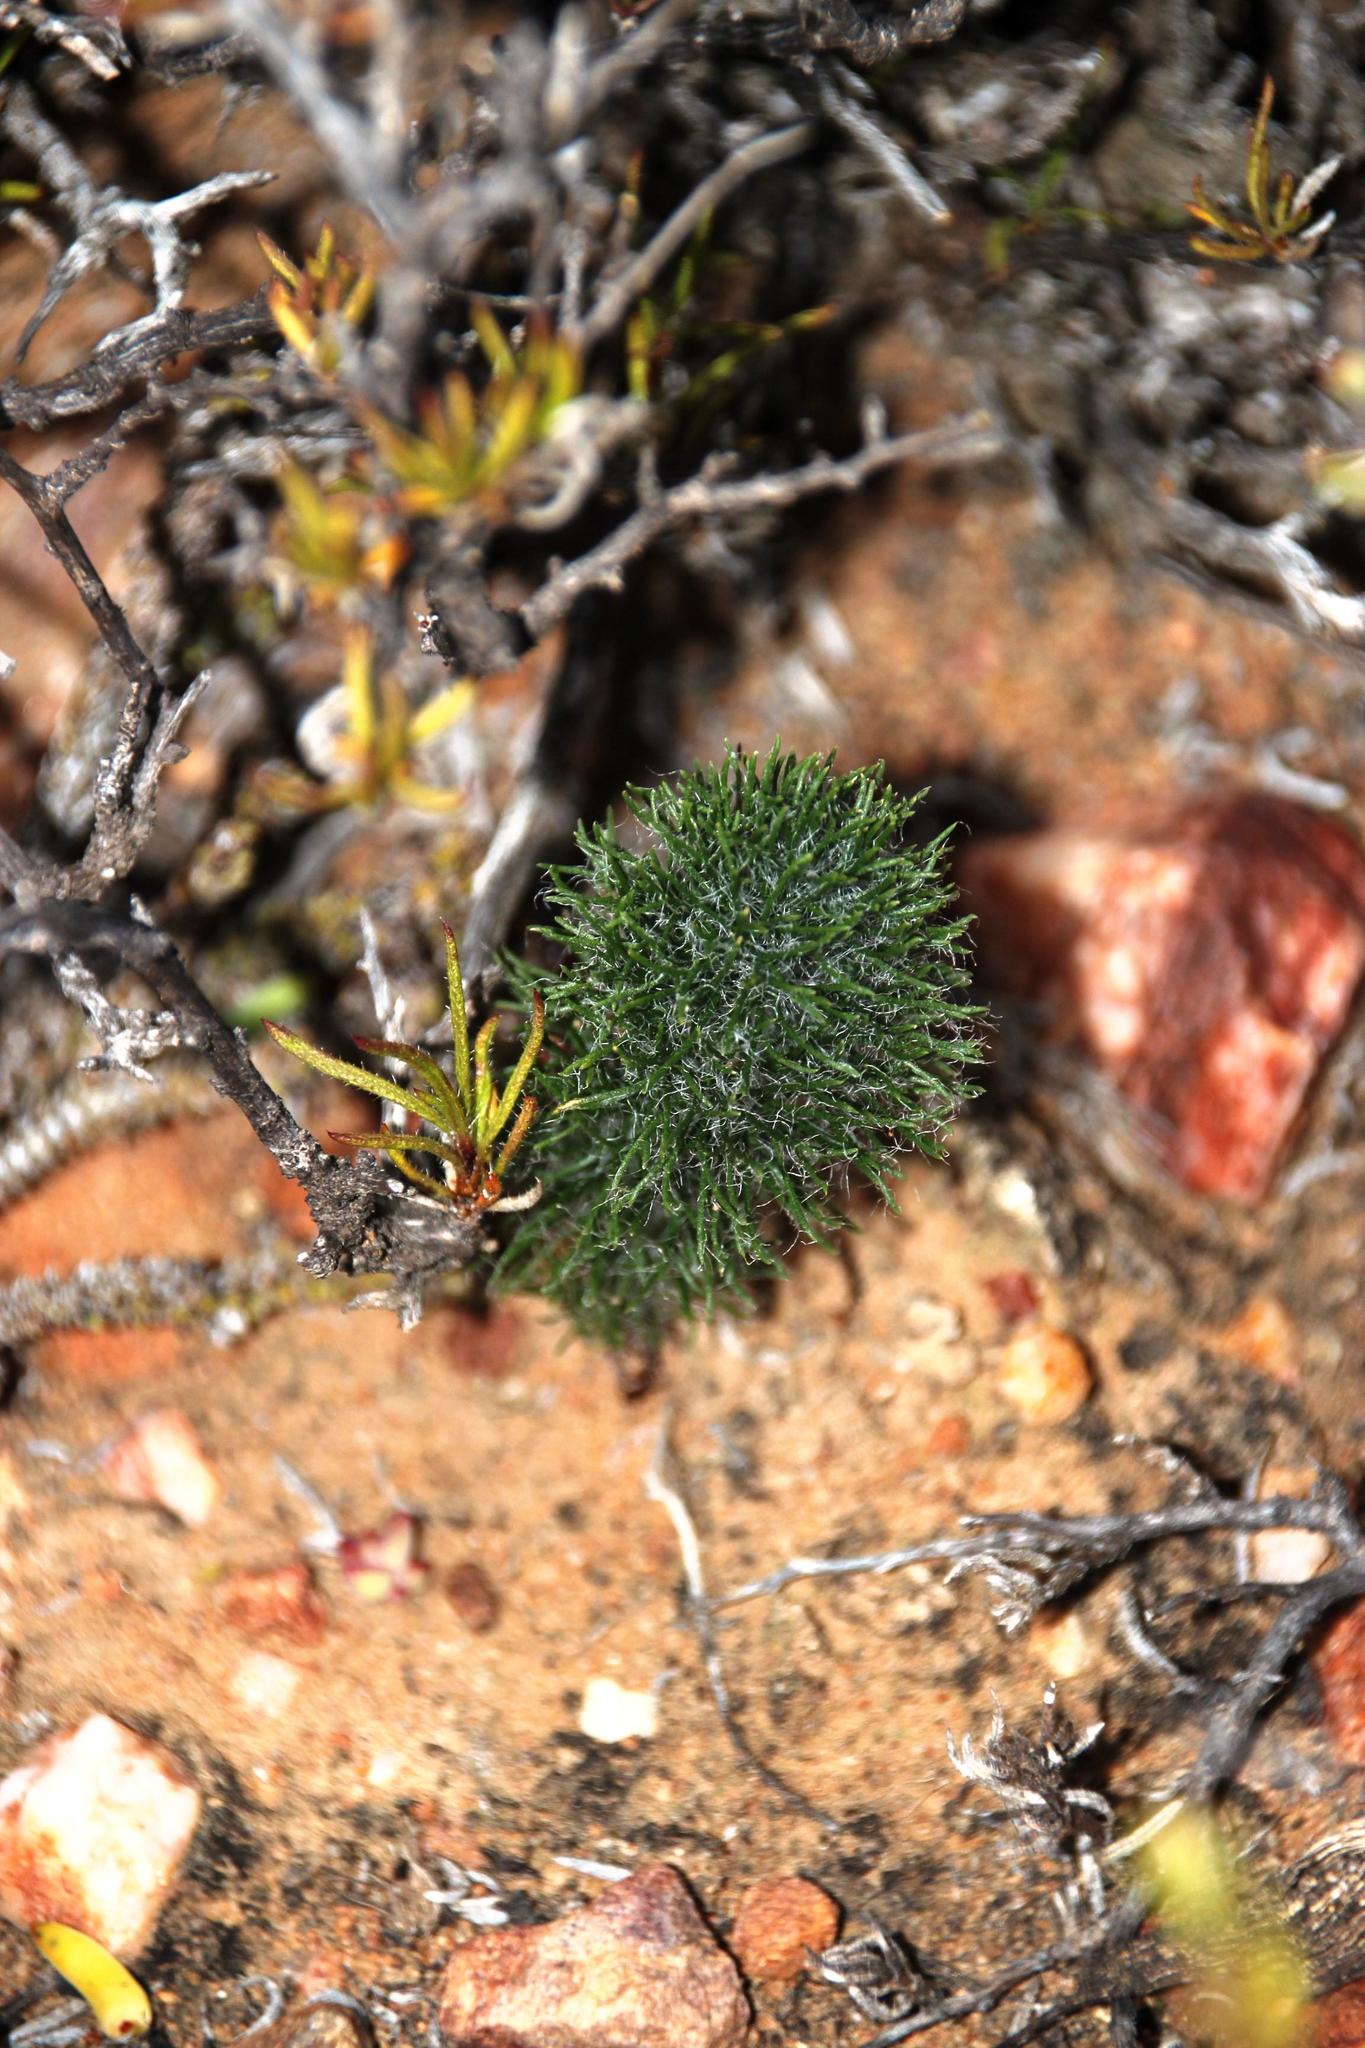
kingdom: Plantae
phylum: Tracheophyta
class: Liliopsida
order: Asparagales
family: Asparagaceae
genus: Eriospermum
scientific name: Eriospermum paradoxum
